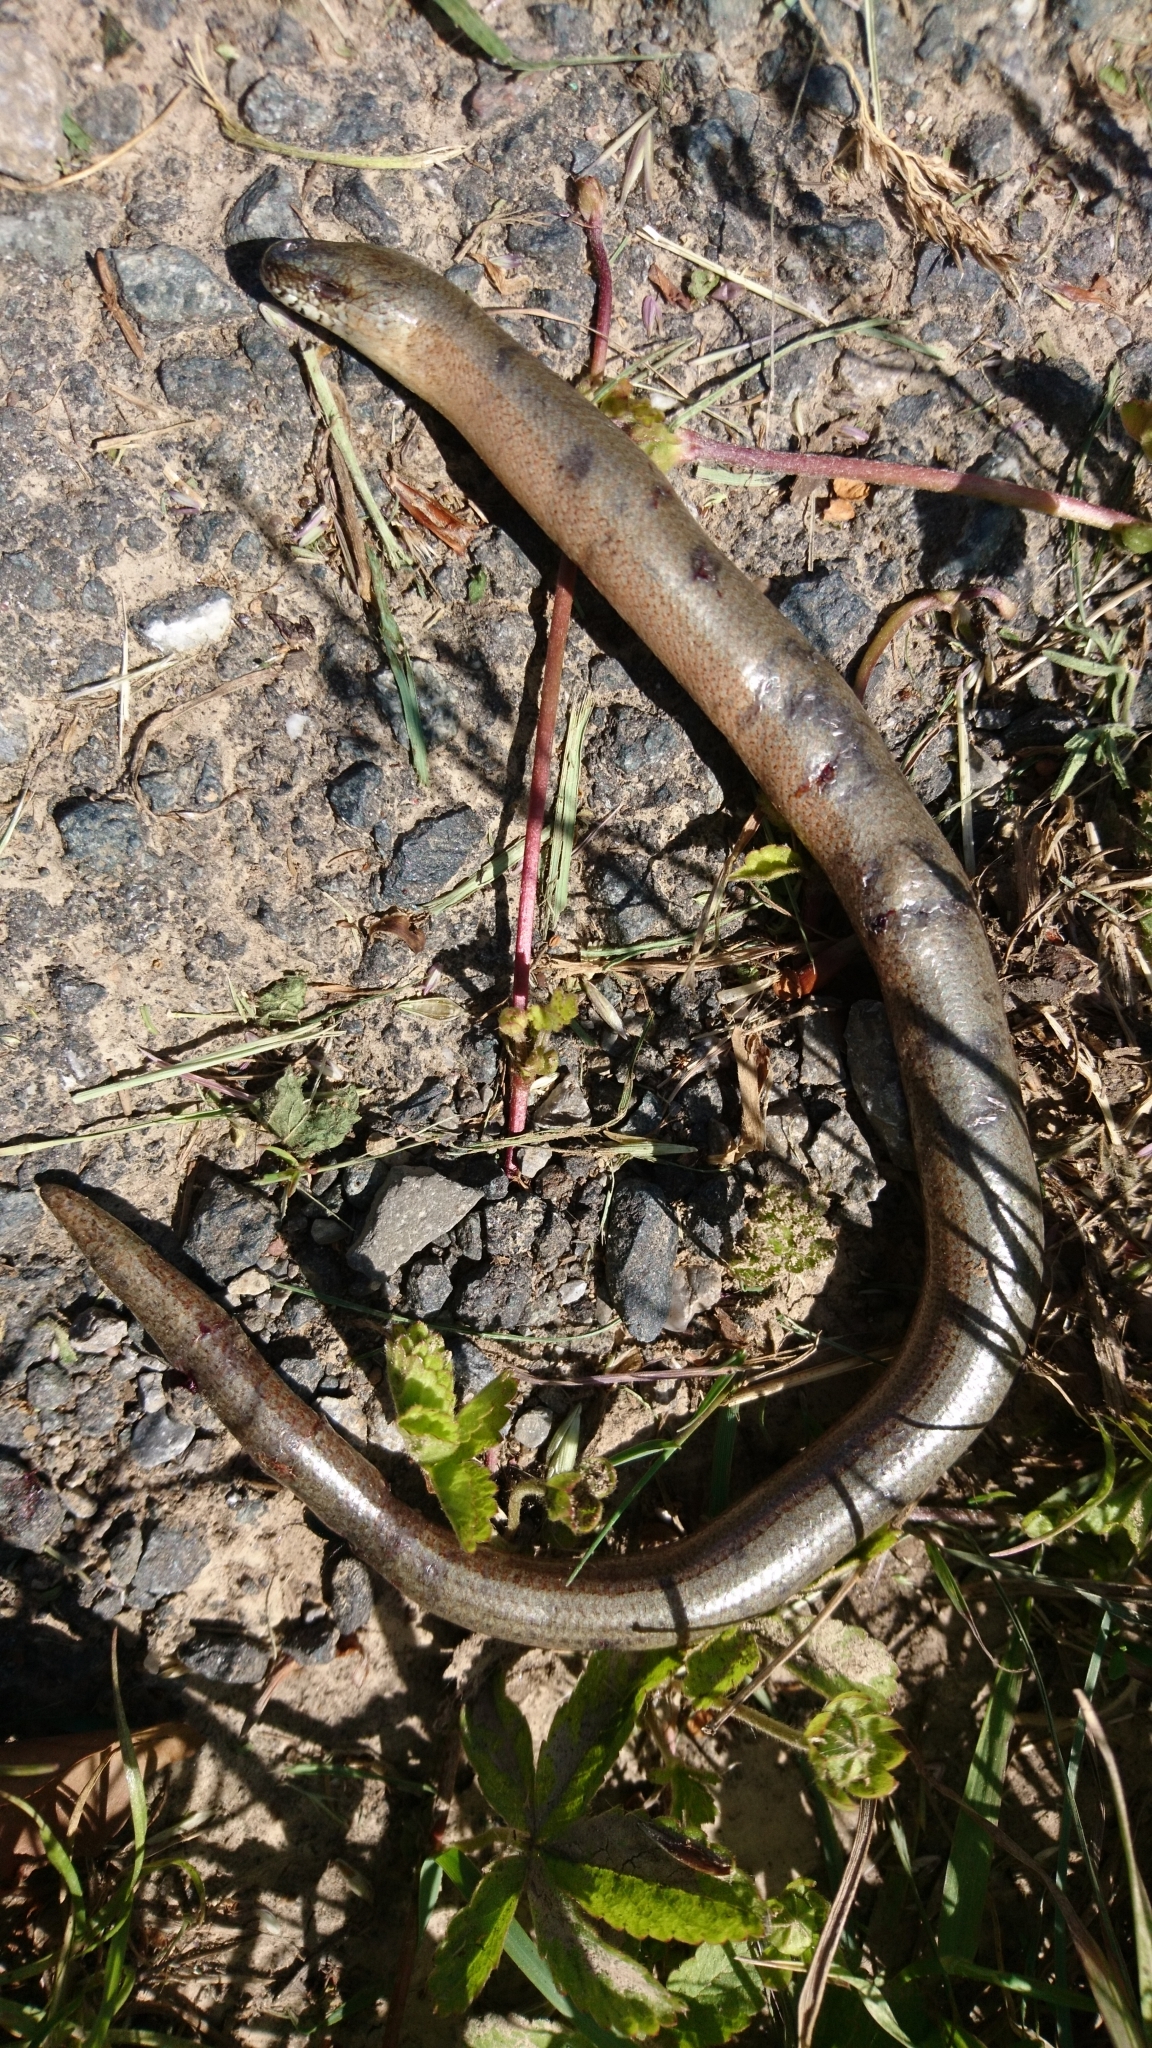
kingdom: Animalia
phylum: Chordata
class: Squamata
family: Anguidae
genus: Anguis
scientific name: Anguis fragilis
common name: Slow worm
